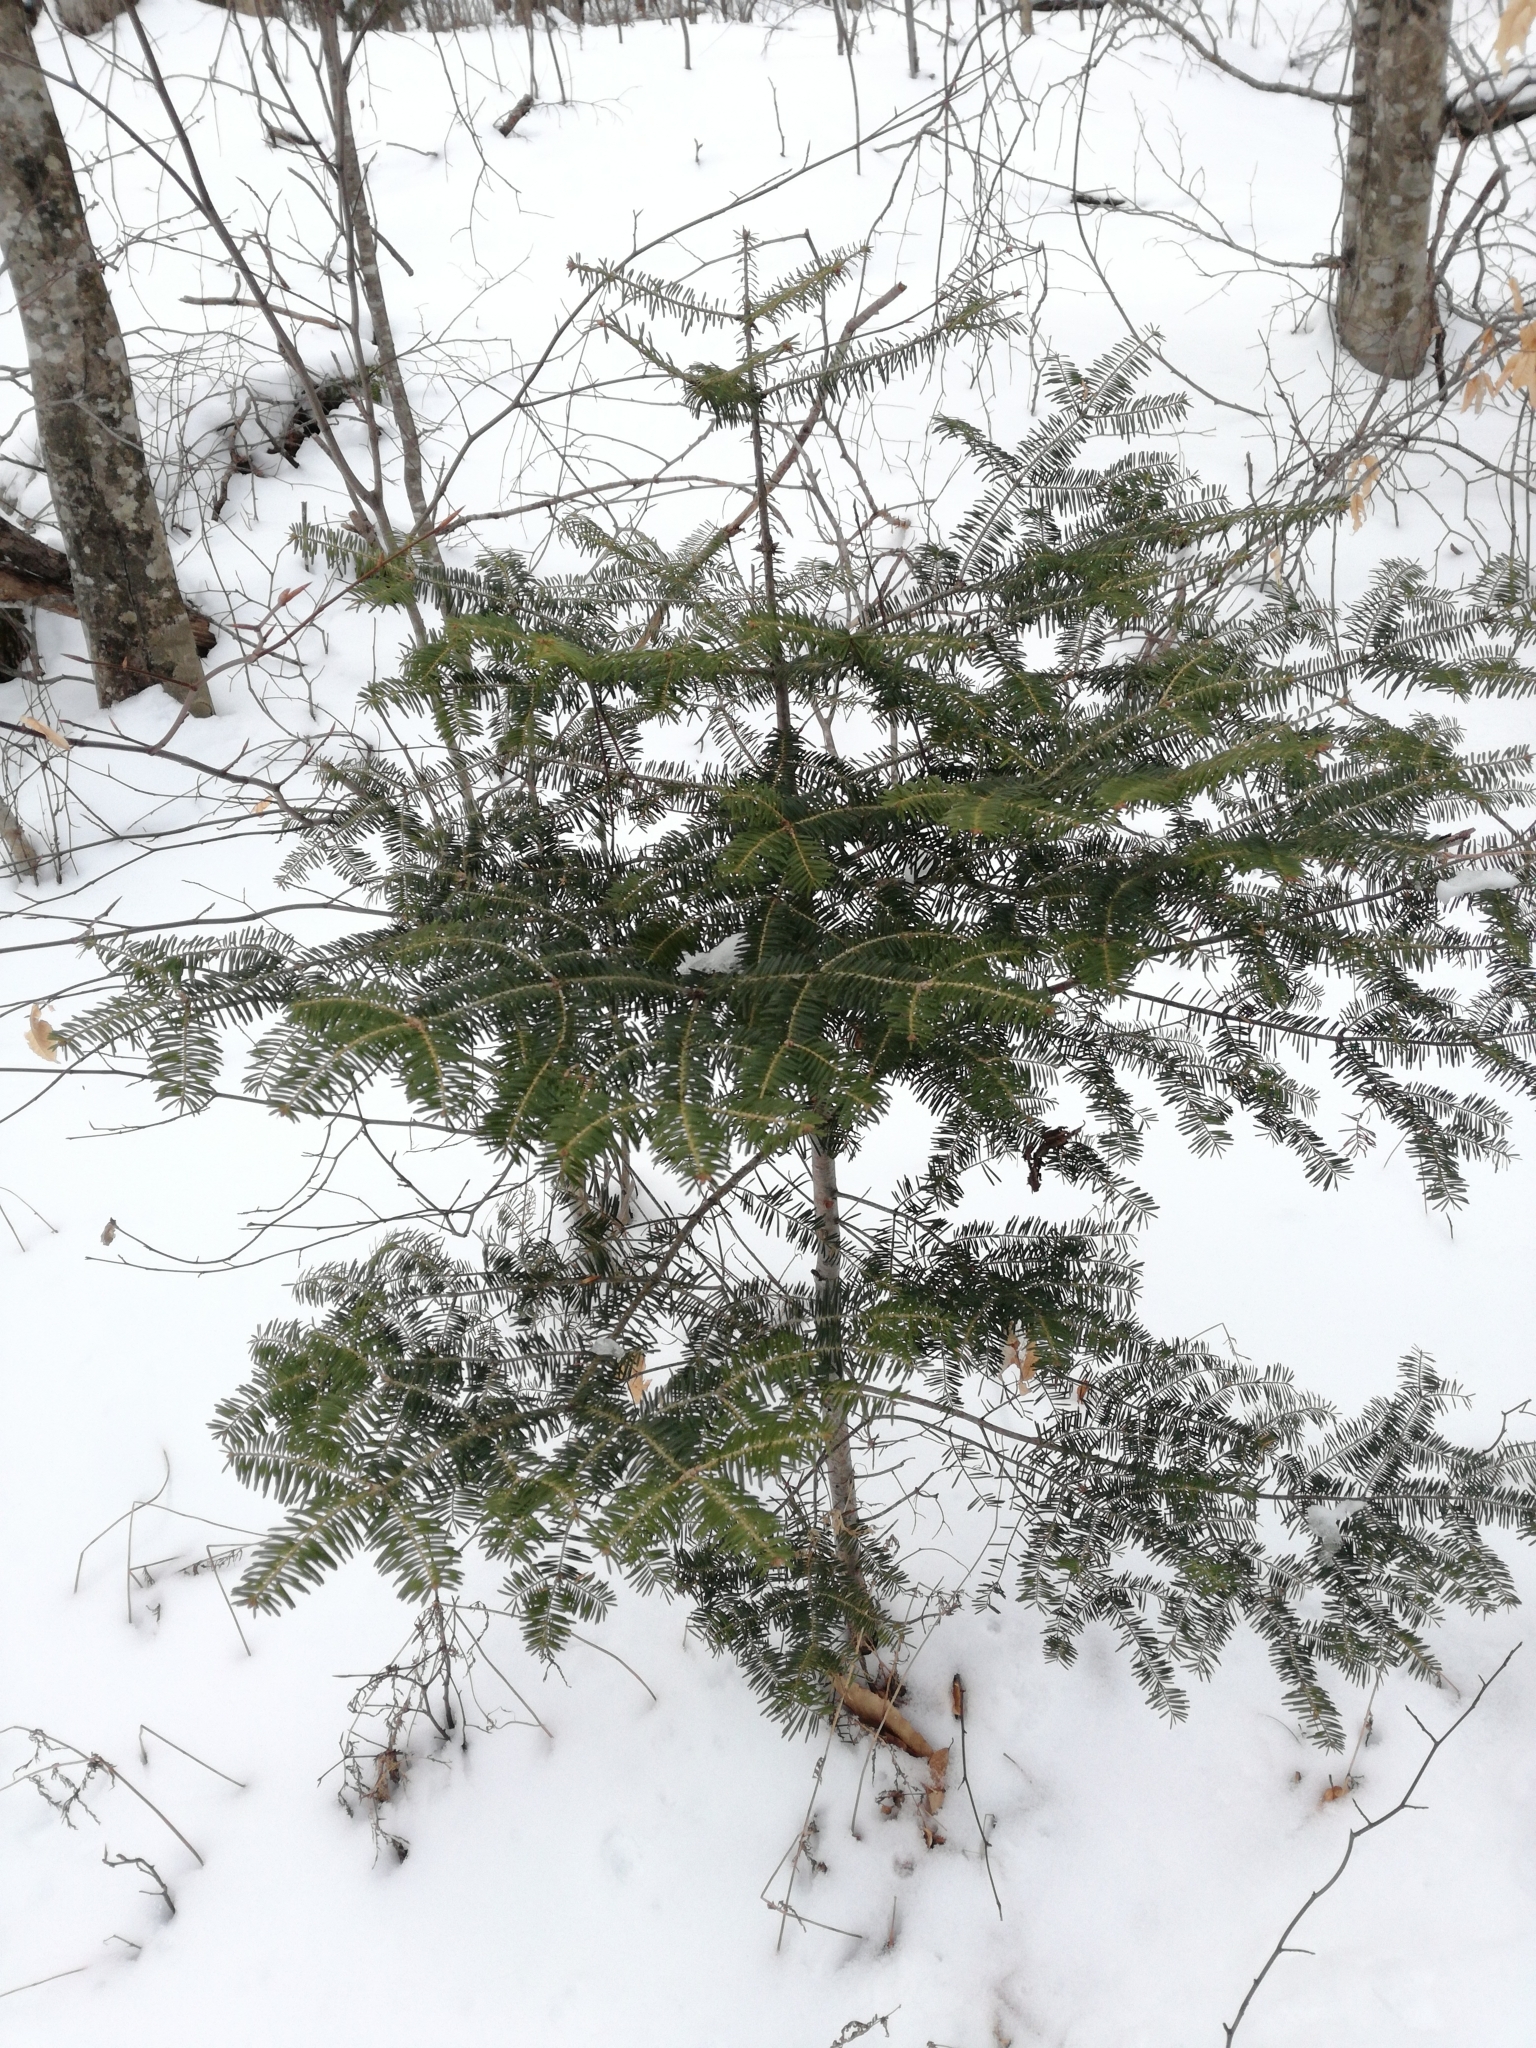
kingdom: Plantae
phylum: Tracheophyta
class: Pinopsida
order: Pinales
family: Pinaceae
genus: Abies
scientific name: Abies balsamea
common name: Balsam fir
